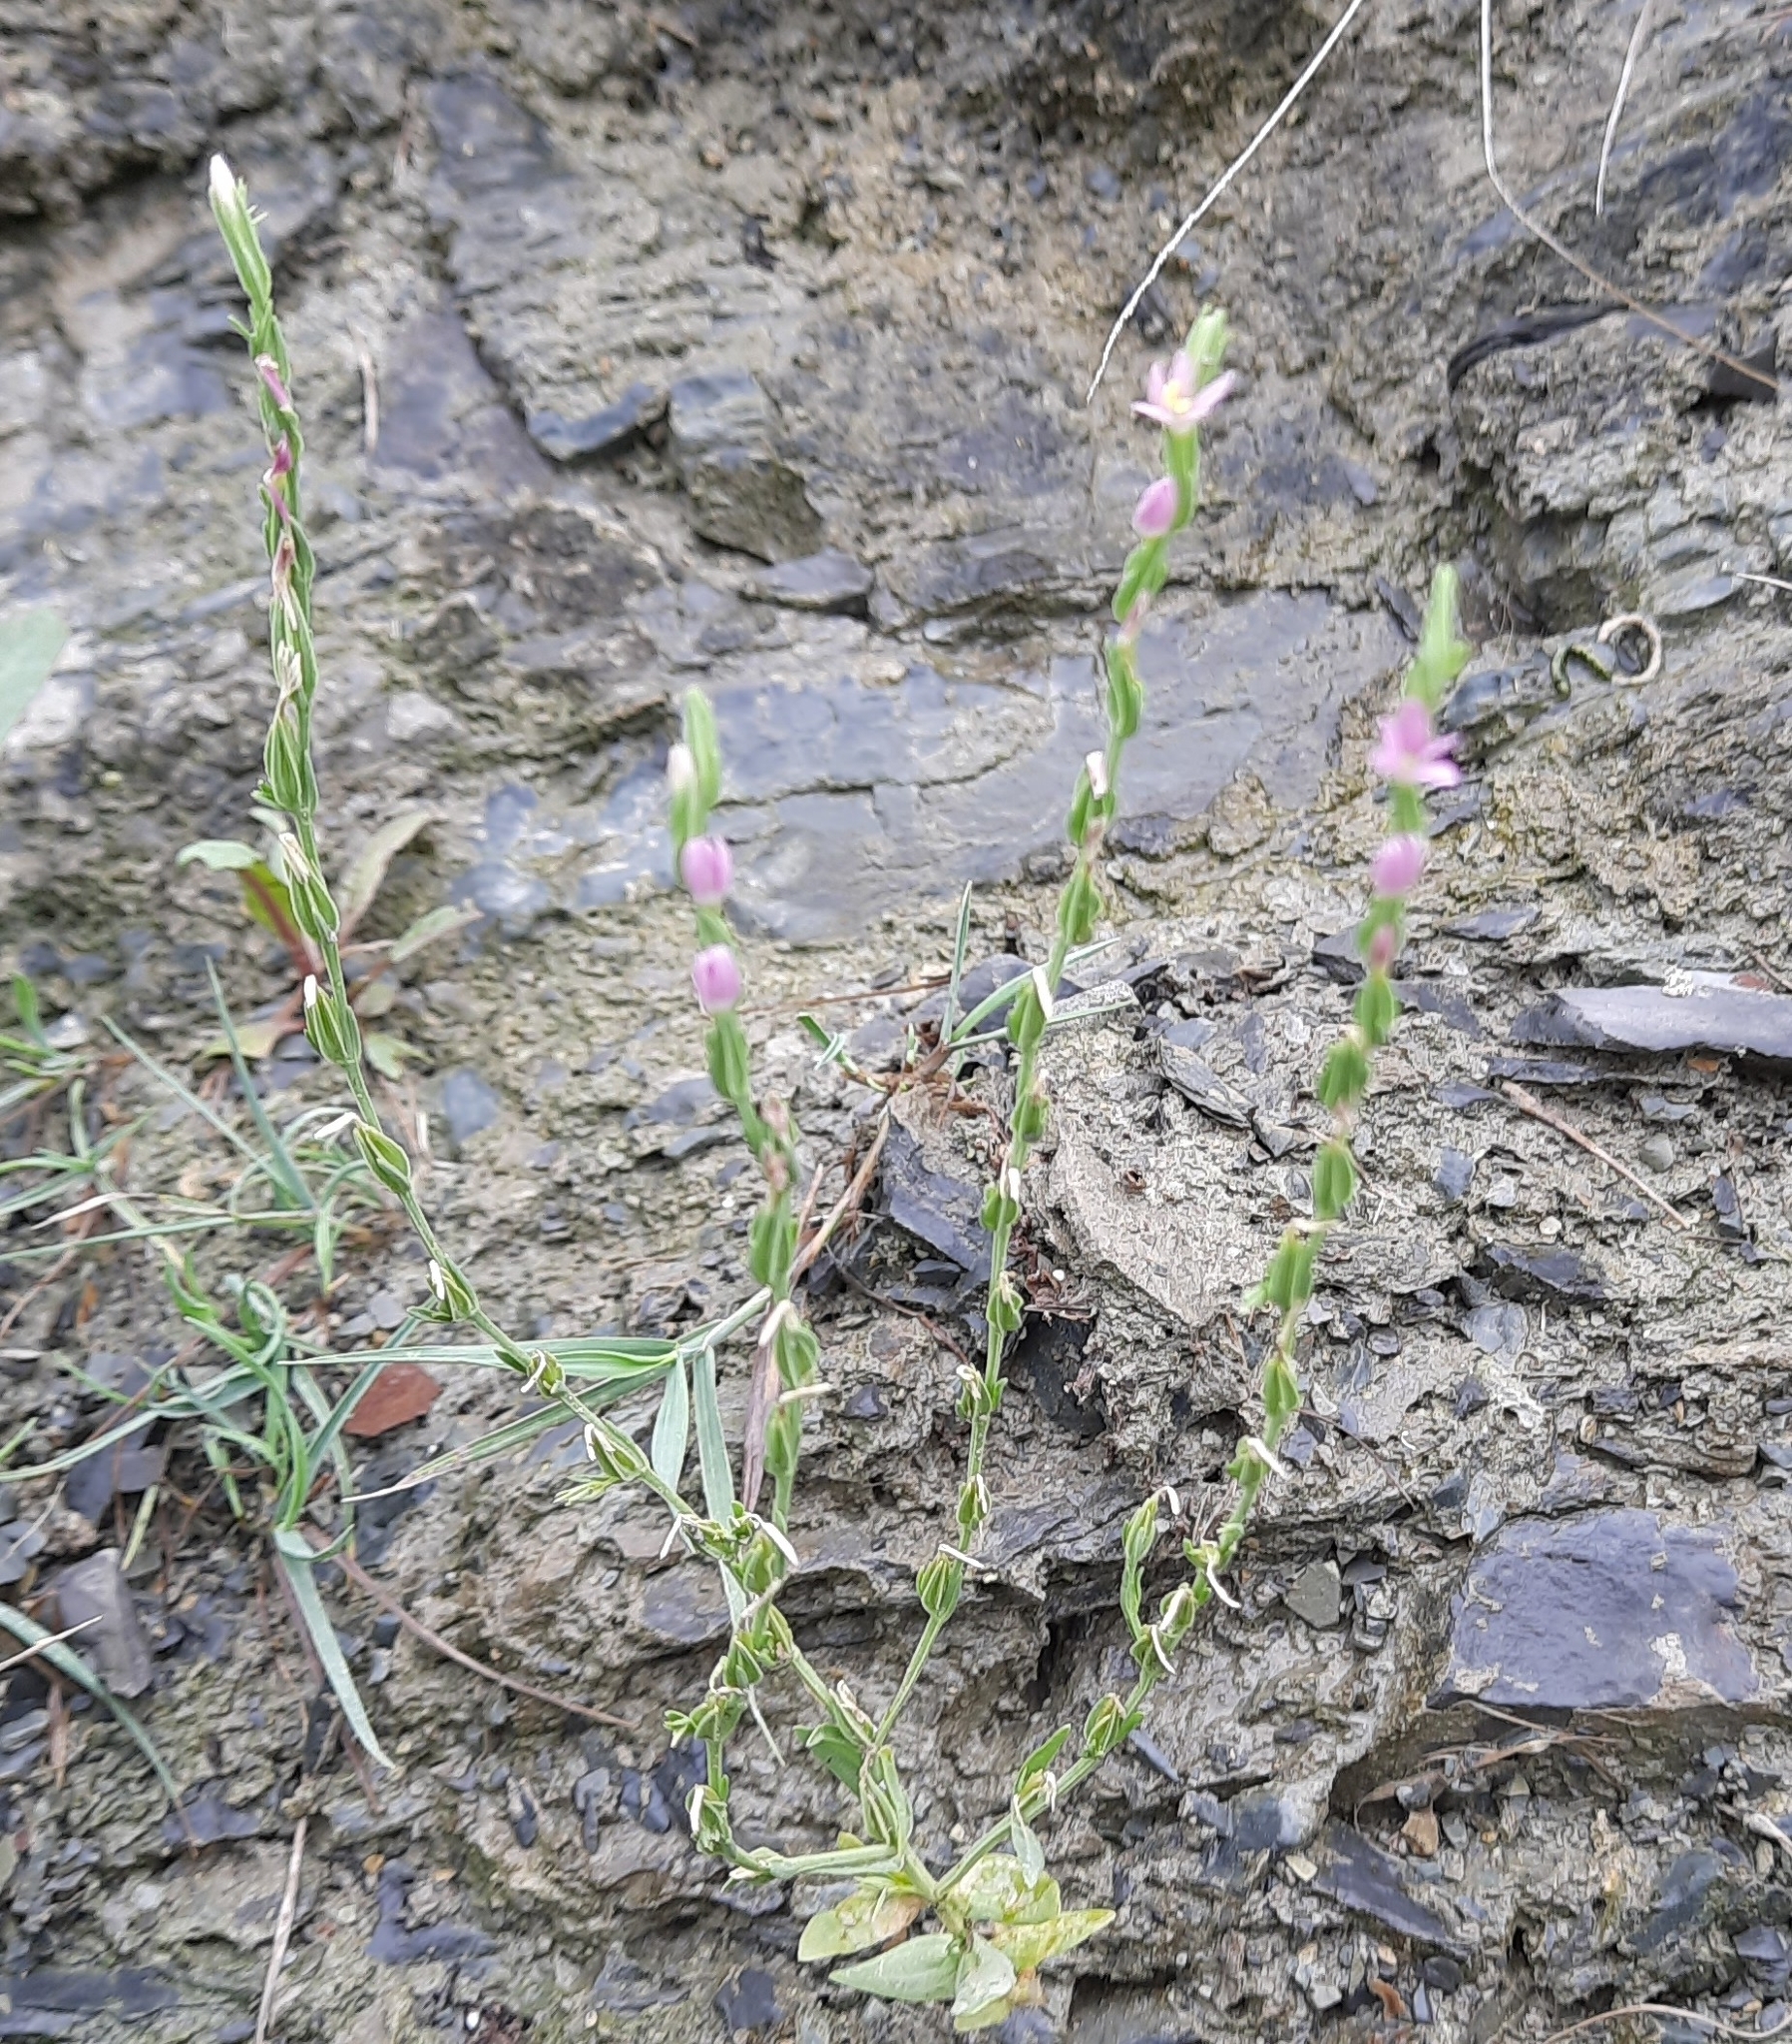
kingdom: Plantae
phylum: Tracheophyta
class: Magnoliopsida
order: Gentianales
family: Gentianaceae
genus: Schenkia
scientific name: Schenkia spicata
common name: Spiked centaury
